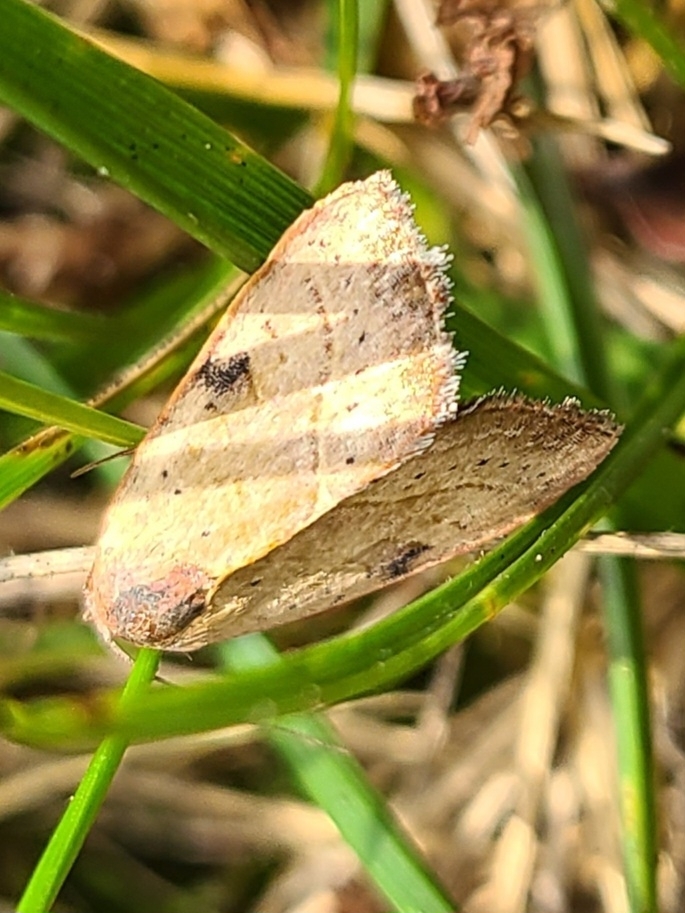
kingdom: Animalia
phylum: Arthropoda
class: Insecta
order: Lepidoptera
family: Noctuidae
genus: Galgula
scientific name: Galgula partita
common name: Wedgeling
